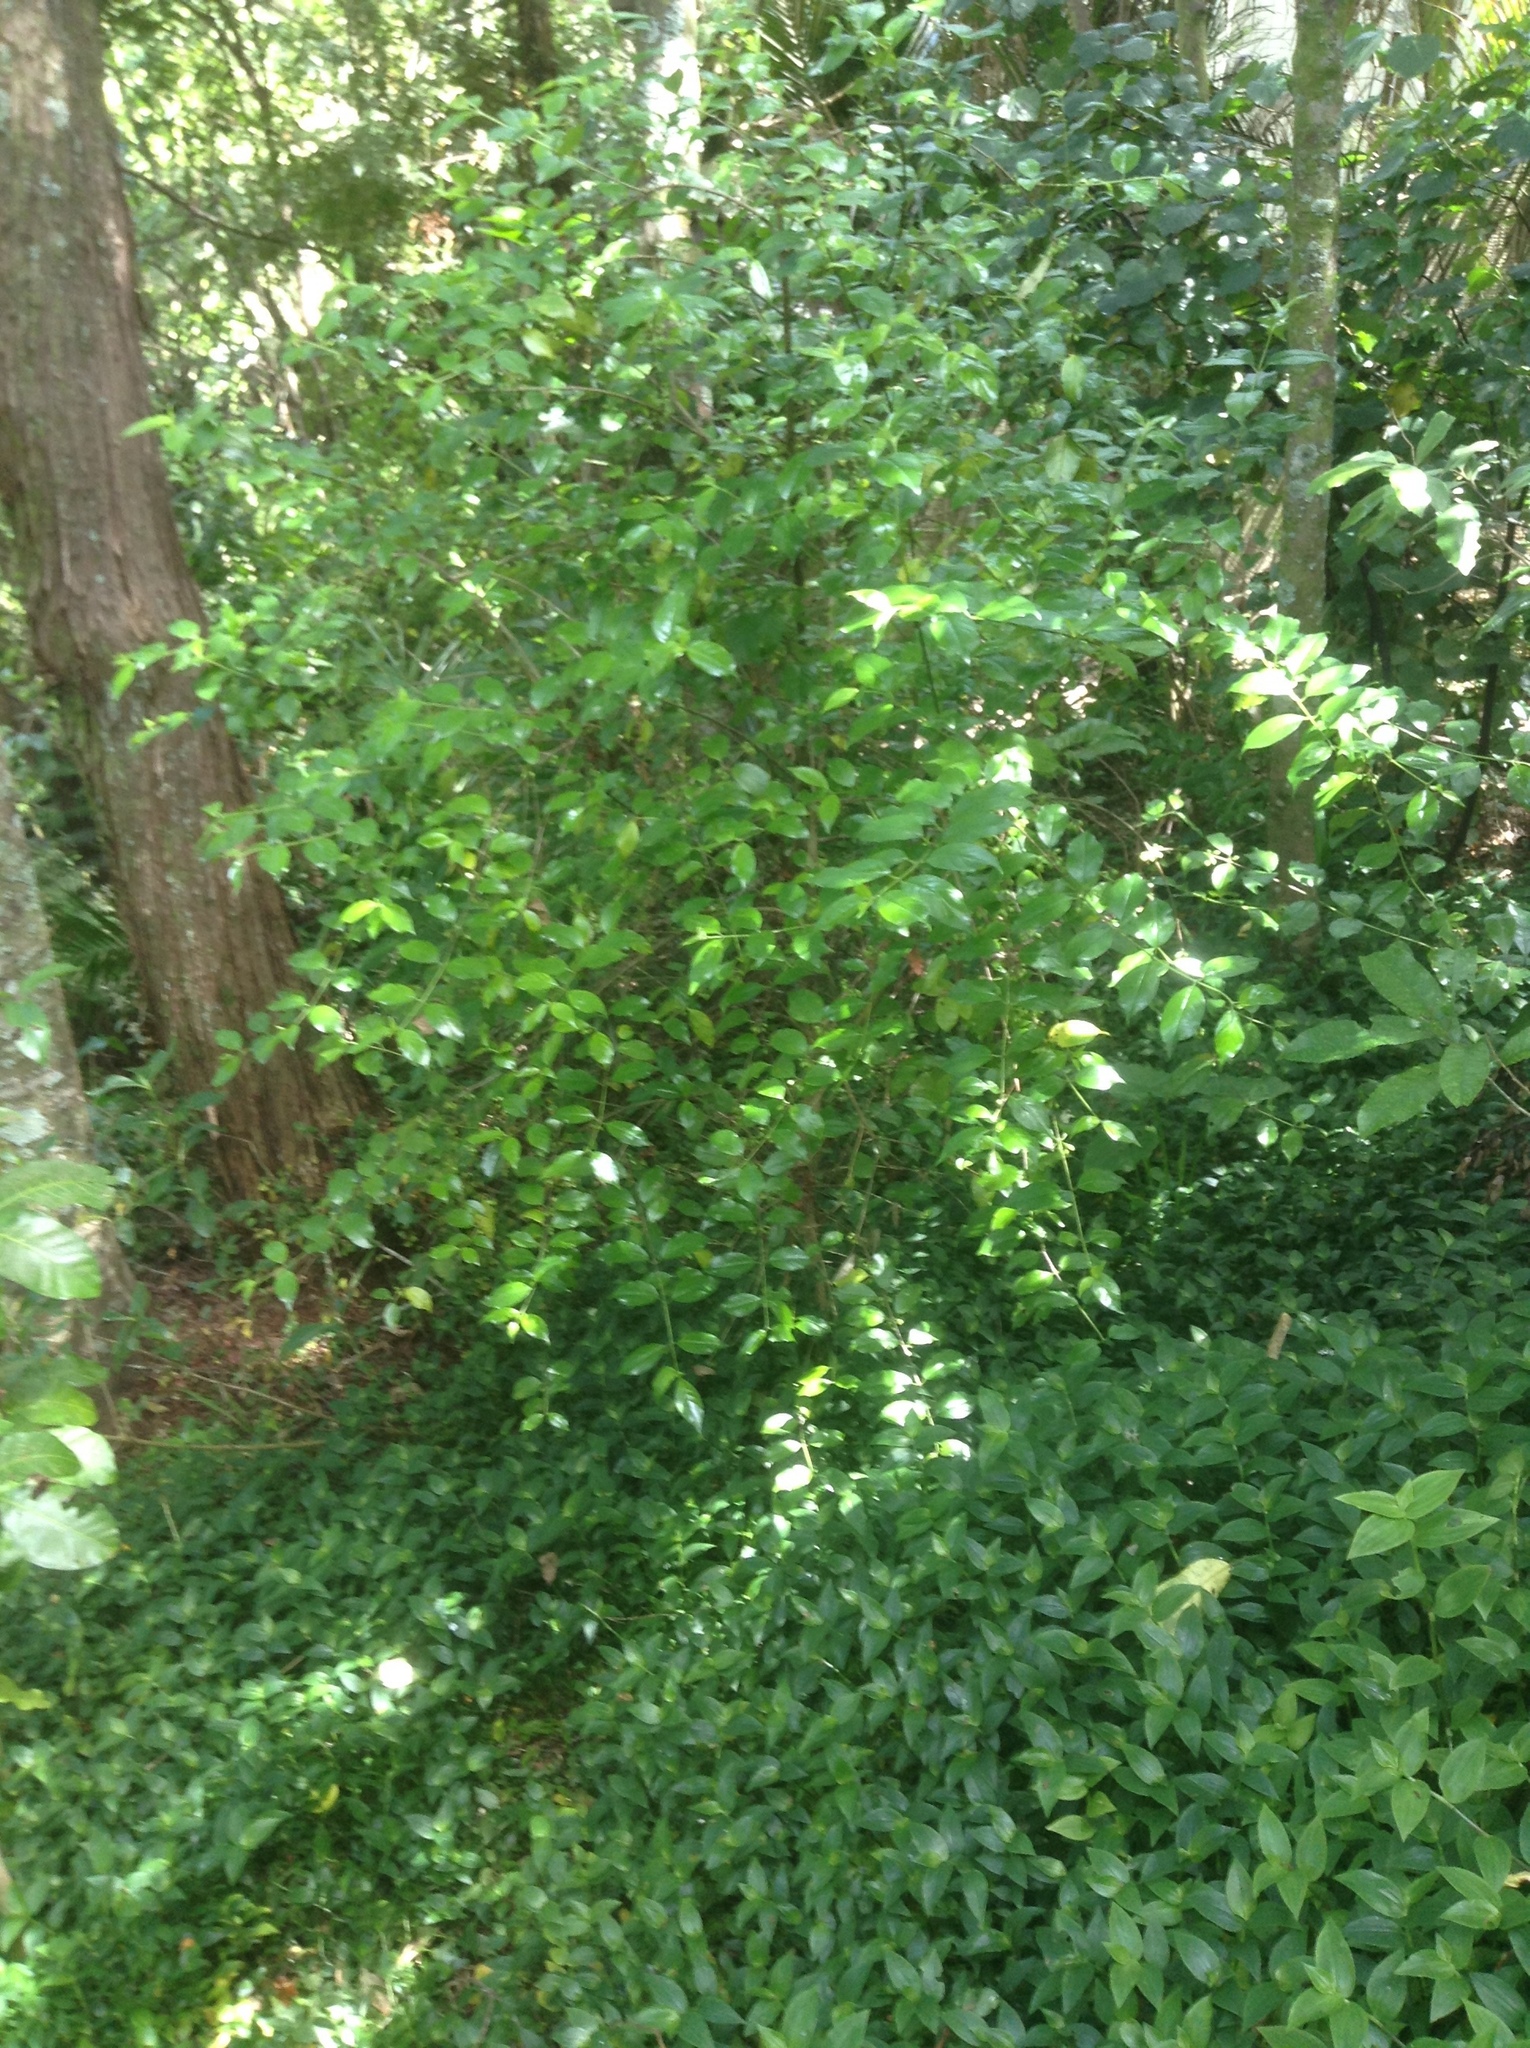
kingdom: Plantae
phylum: Tracheophyta
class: Magnoliopsida
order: Gentianales
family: Loganiaceae
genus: Geniostoma
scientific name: Geniostoma ligustrifolium
